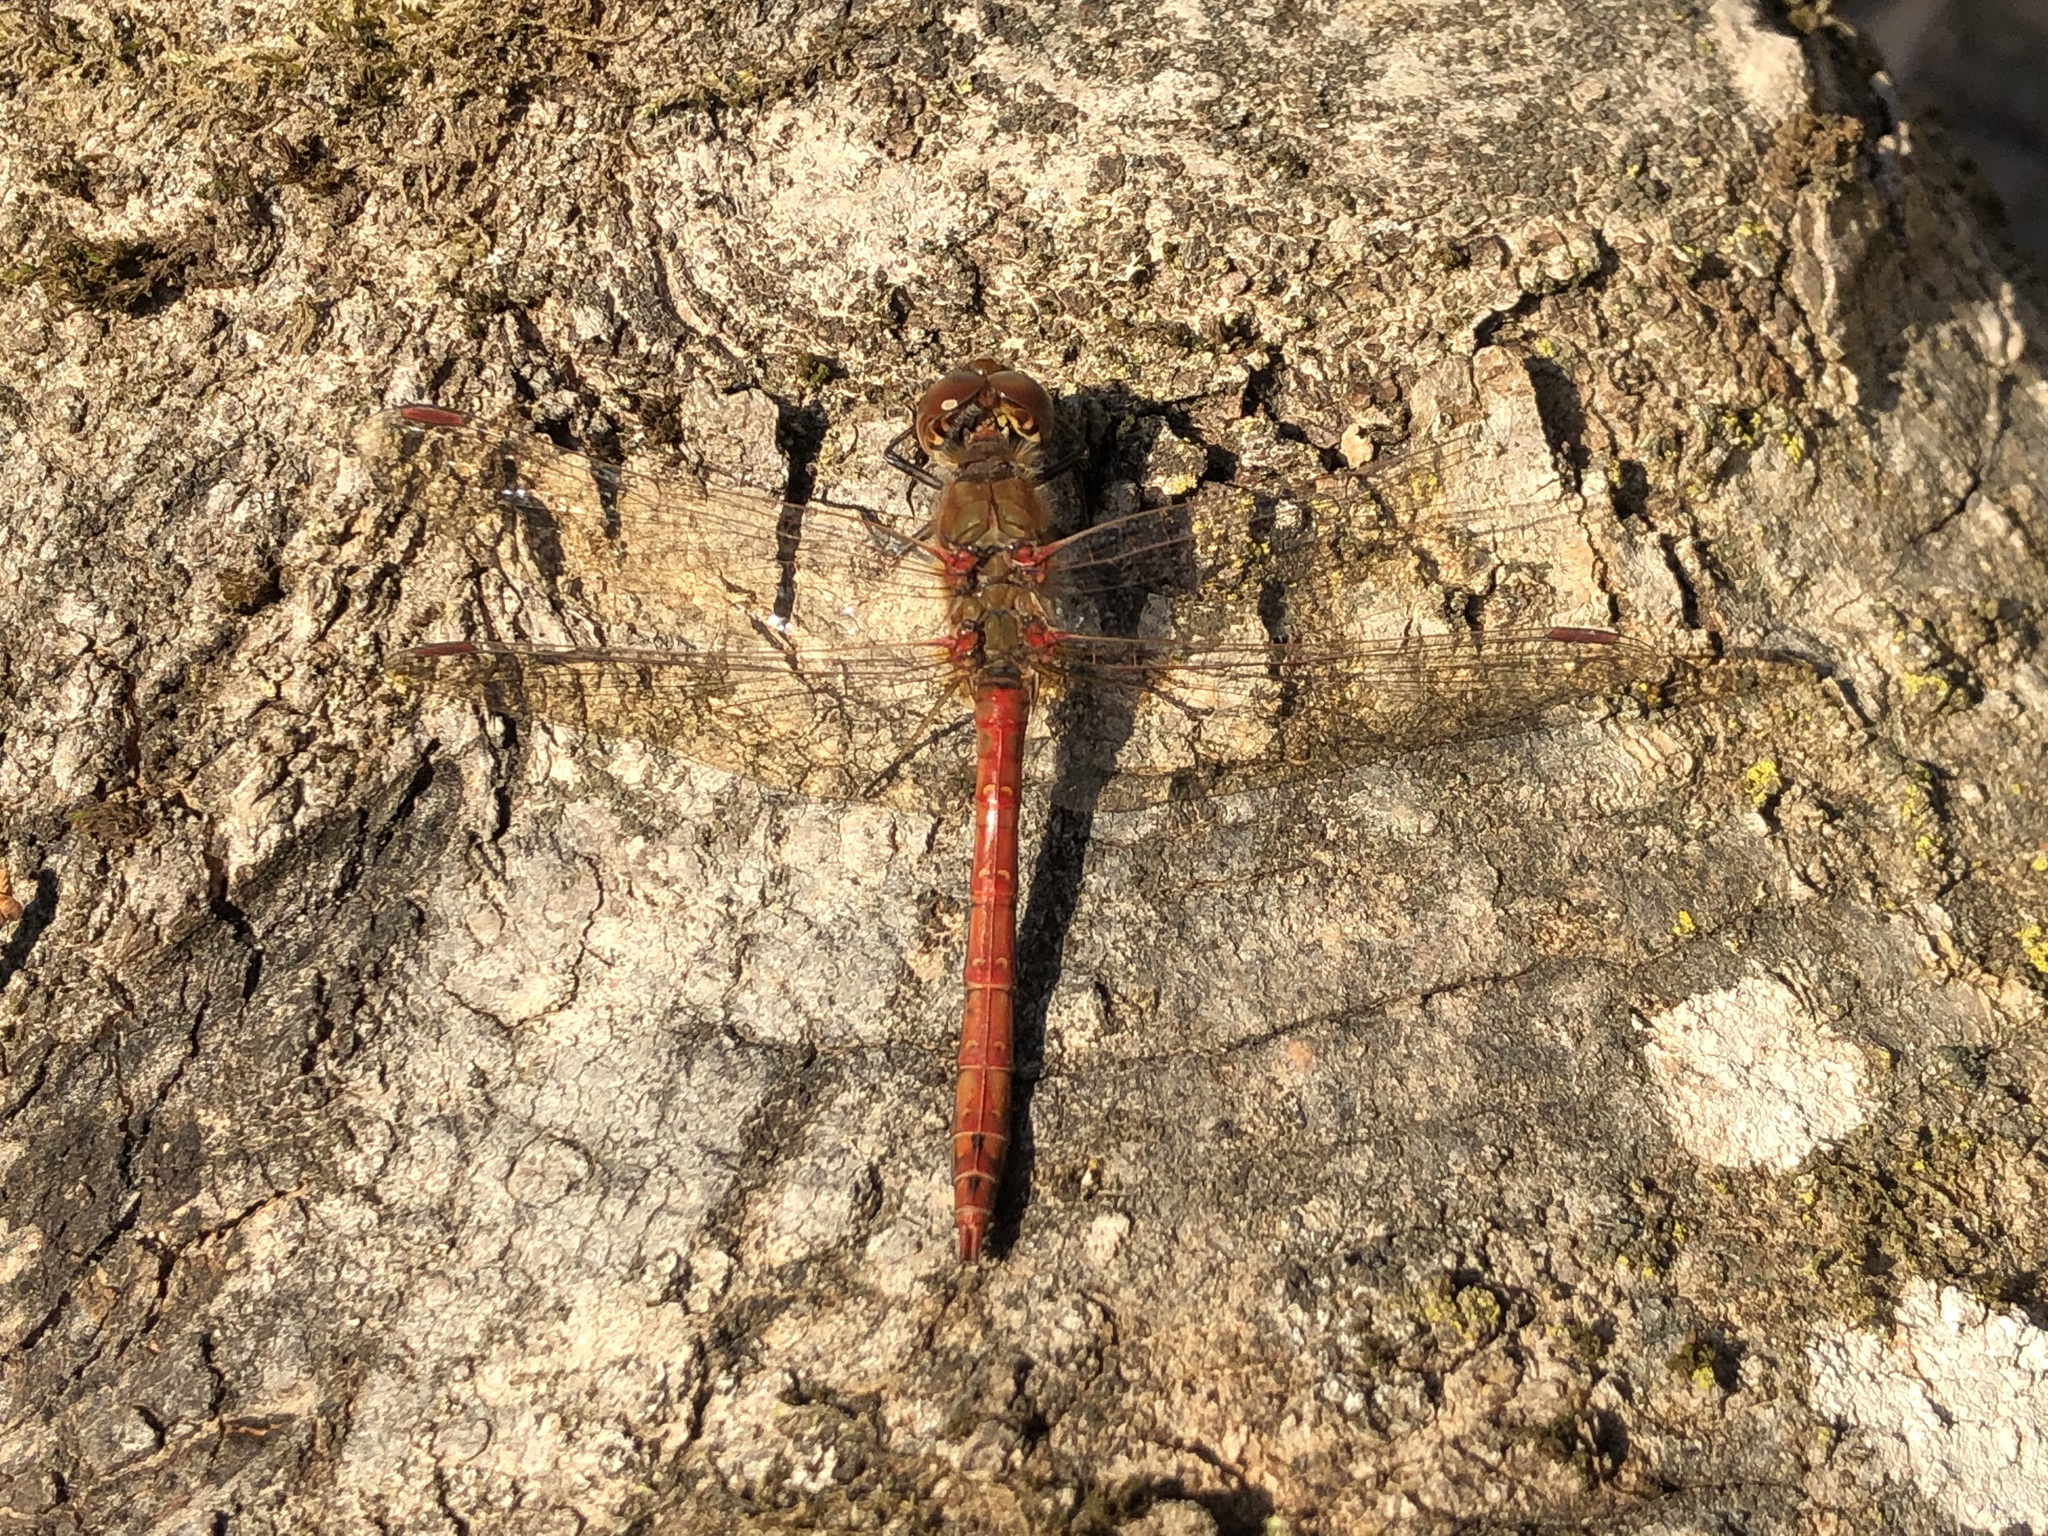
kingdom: Animalia
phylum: Arthropoda
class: Insecta
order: Odonata
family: Libellulidae
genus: Sympetrum
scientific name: Sympetrum striolatum
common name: Common darter
